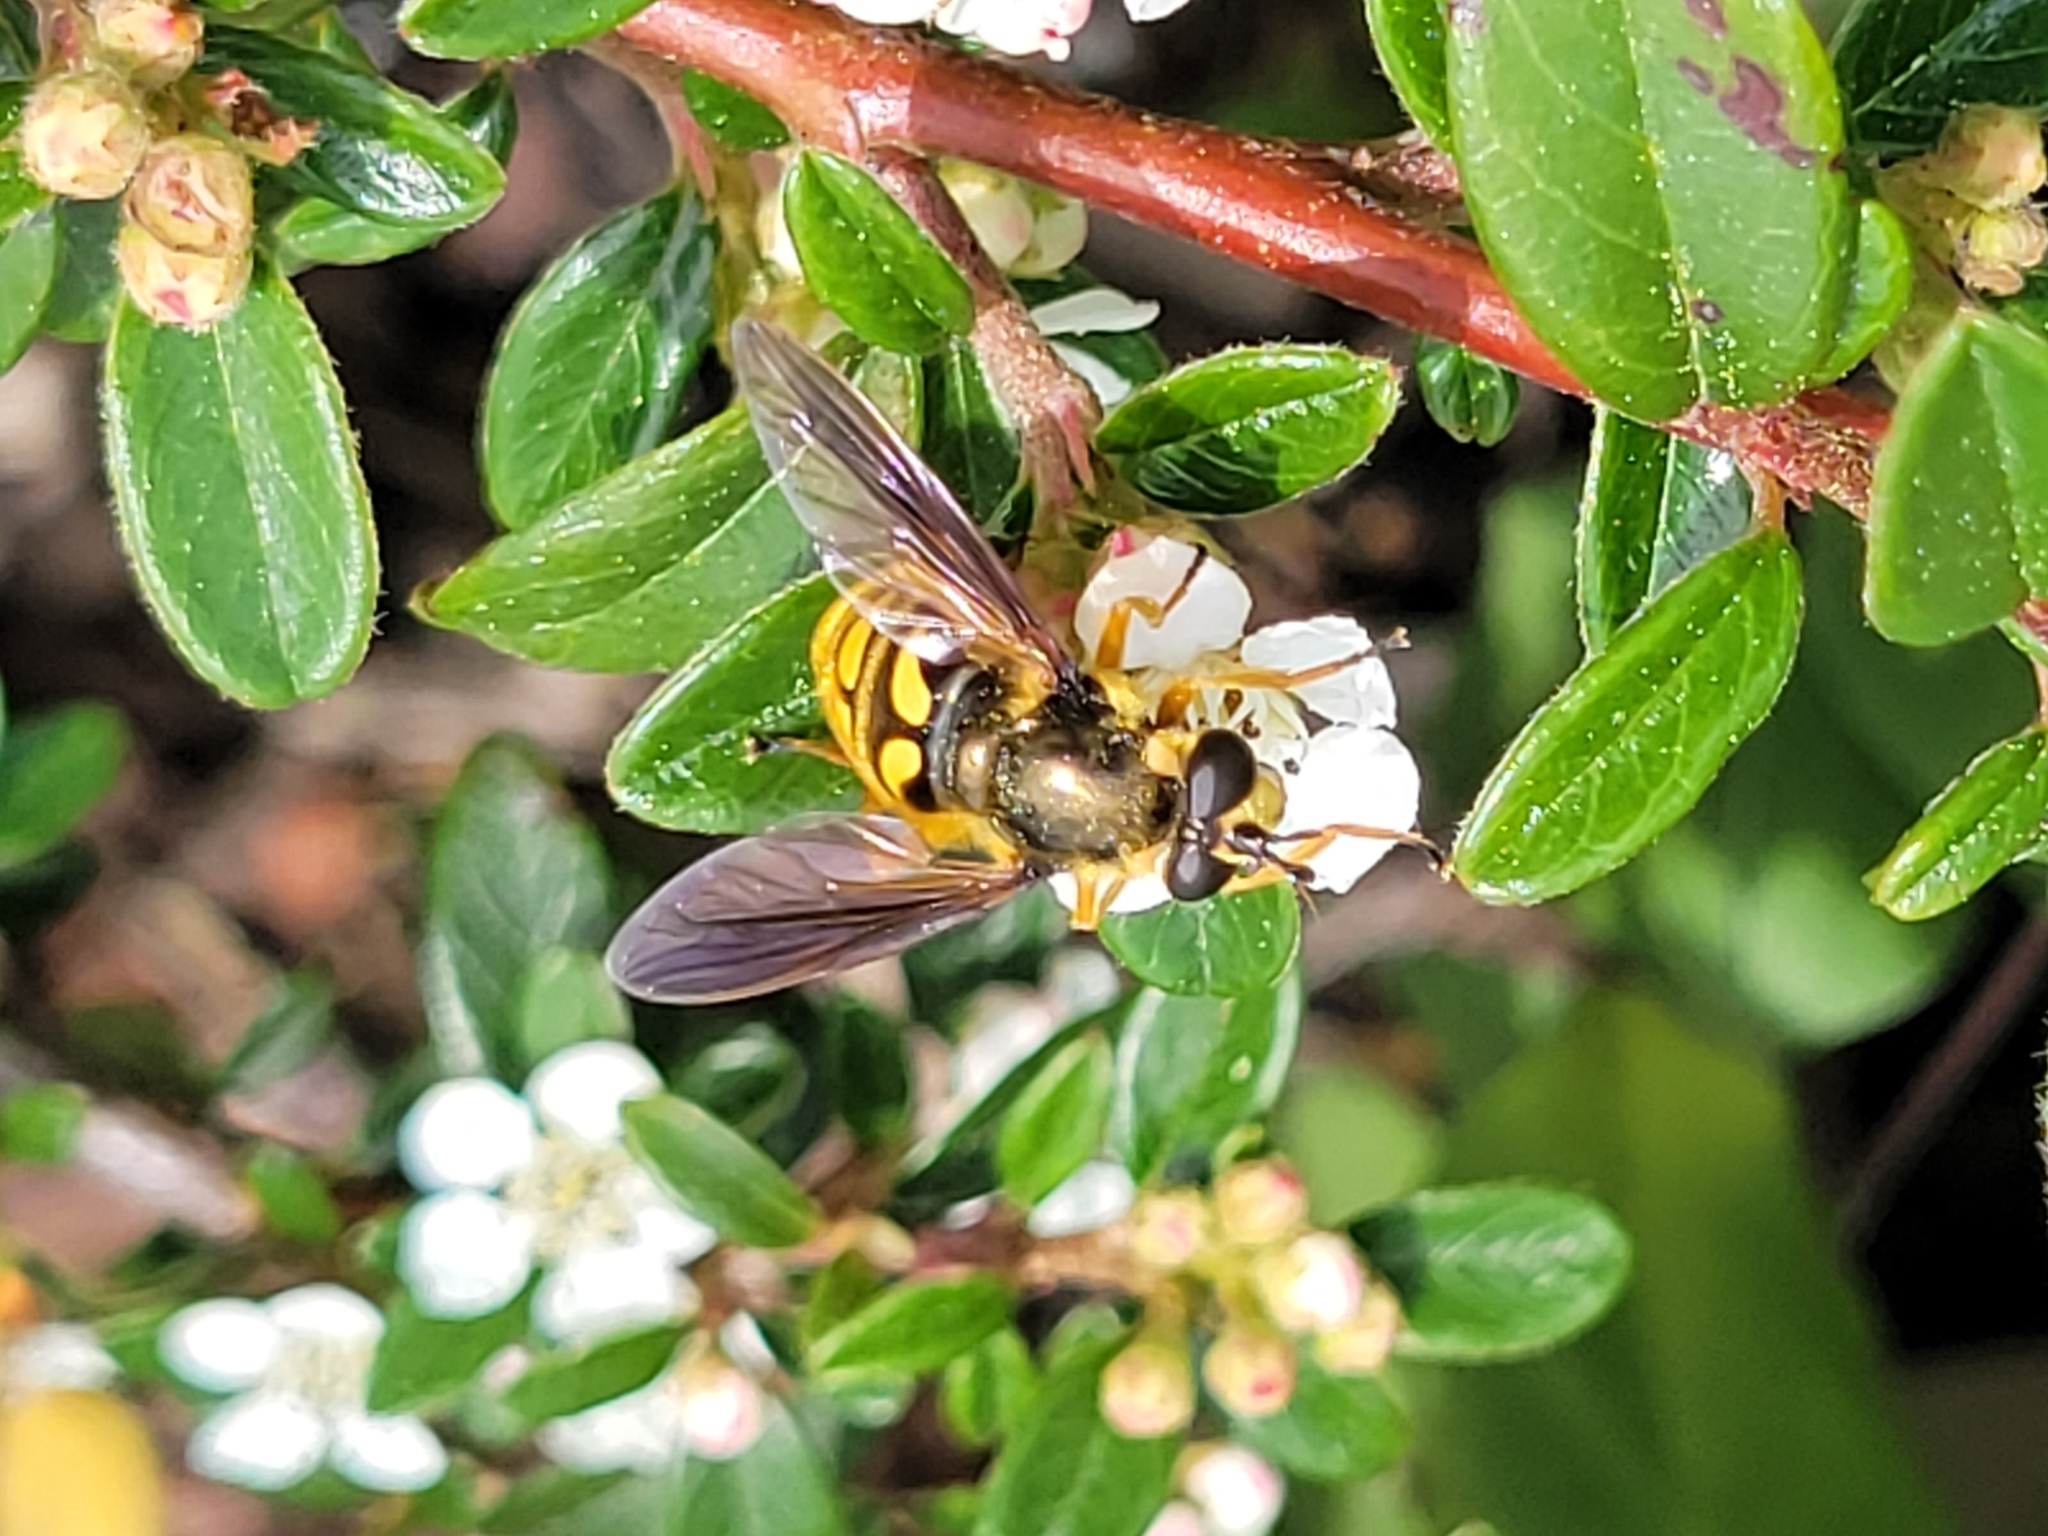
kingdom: Animalia
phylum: Arthropoda
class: Insecta
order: Diptera
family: Syrphidae
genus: Somula
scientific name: Somula decora
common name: Spotted wood fly
